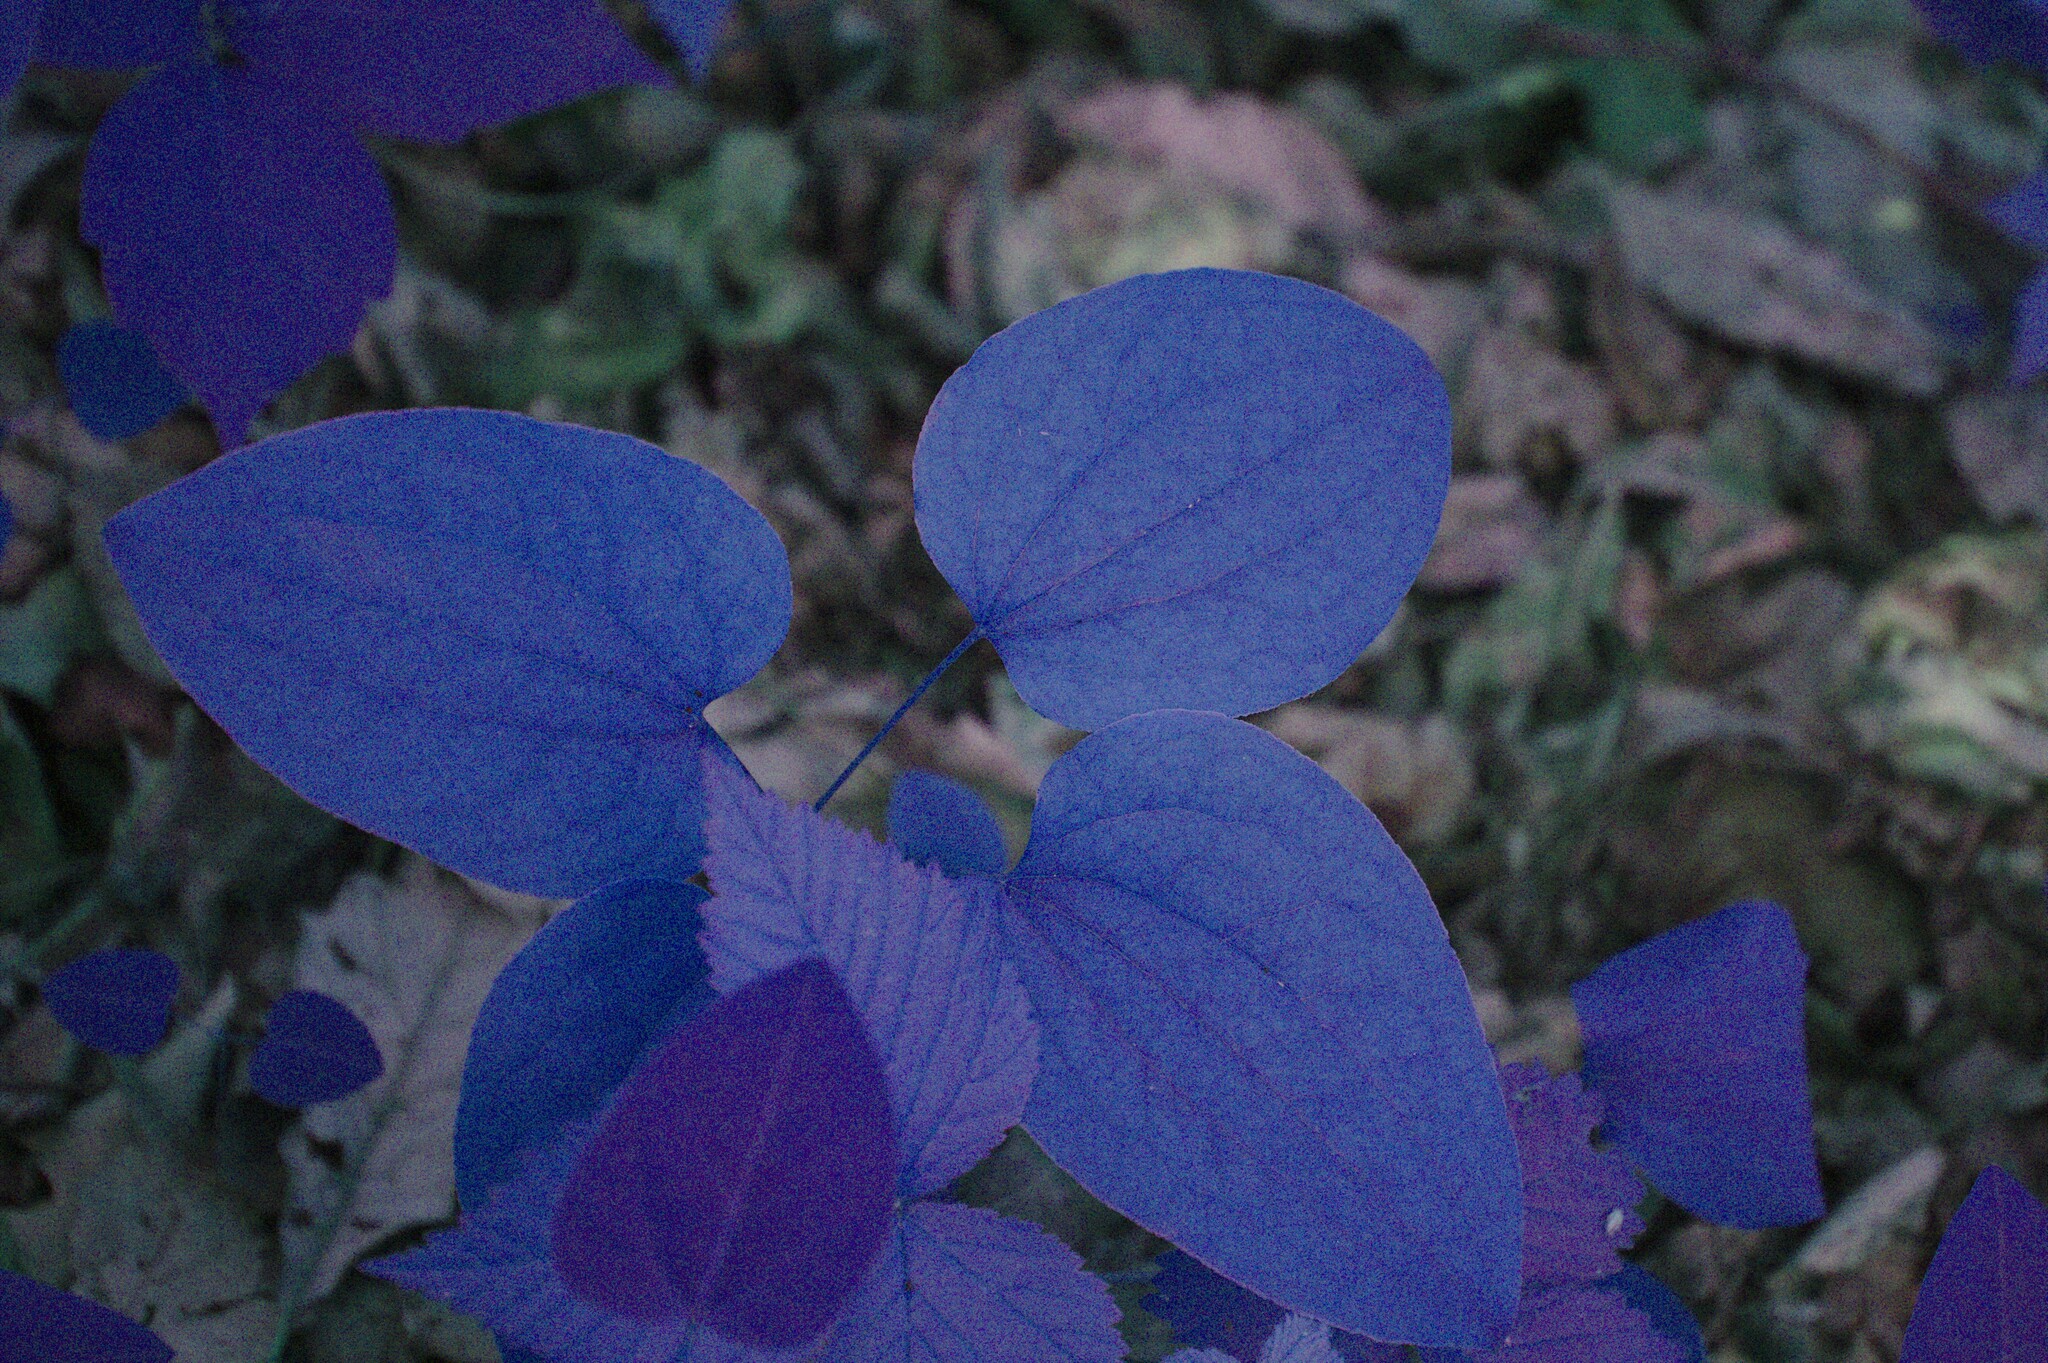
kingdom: Plantae
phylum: Tracheophyta
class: Liliopsida
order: Liliales
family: Smilacaceae
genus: Smilax
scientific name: Smilax herbacea
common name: Jacob's-ladder
